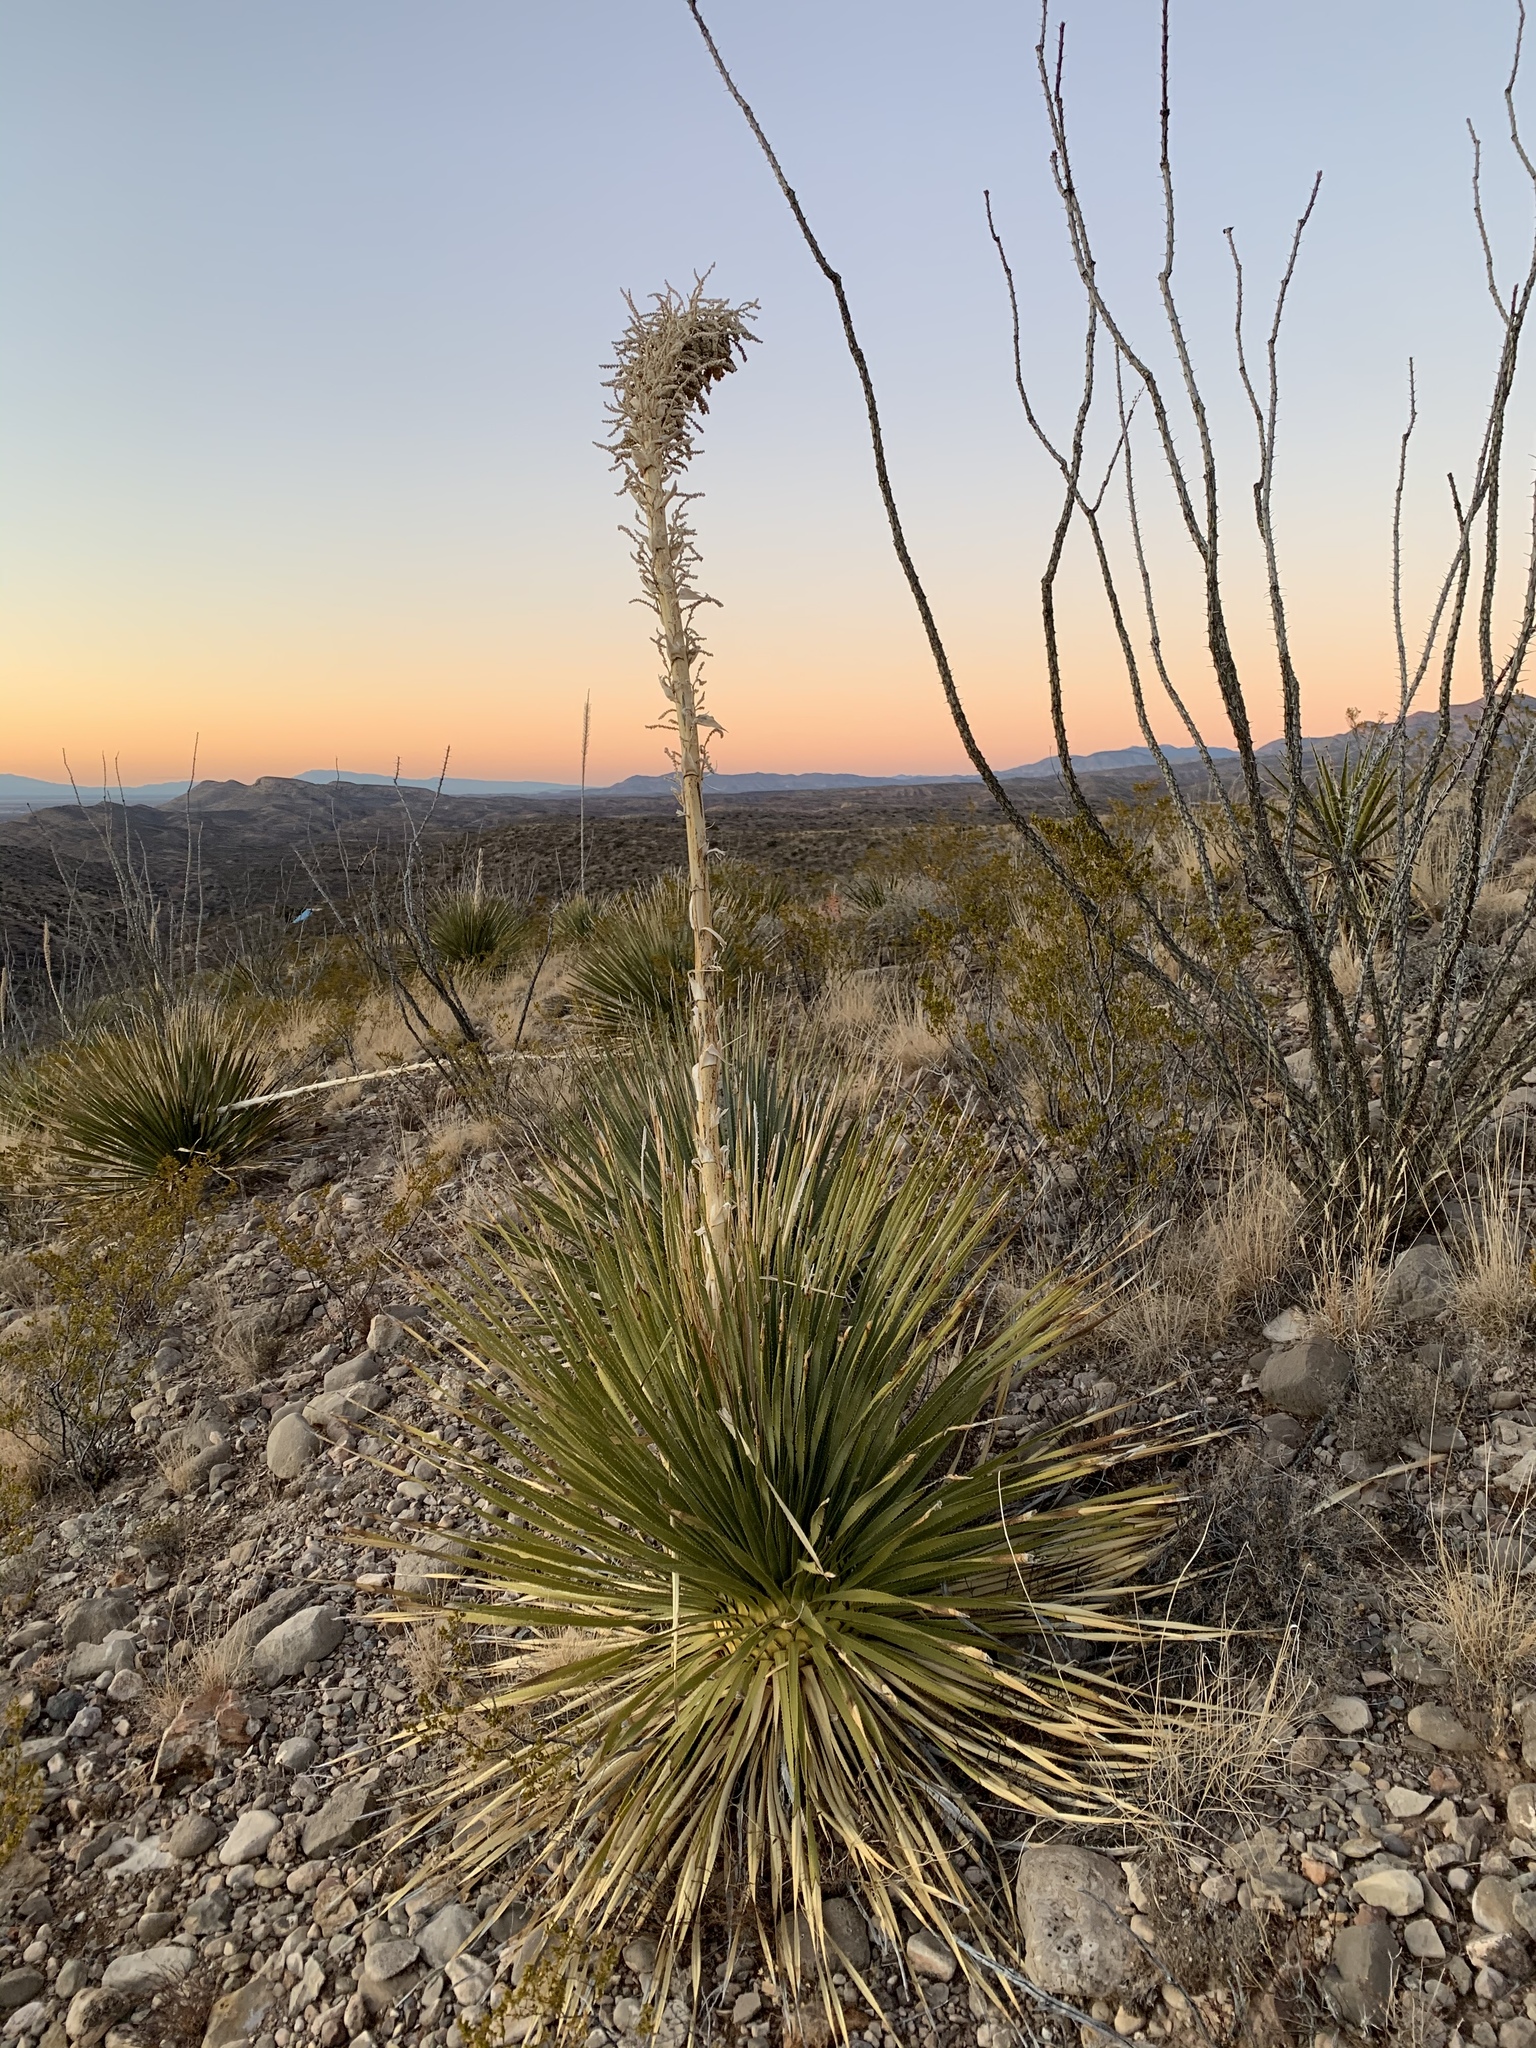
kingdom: Plantae
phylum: Tracheophyta
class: Liliopsida
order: Asparagales
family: Asparagaceae
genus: Dasylirion
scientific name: Dasylirion wheeleri
